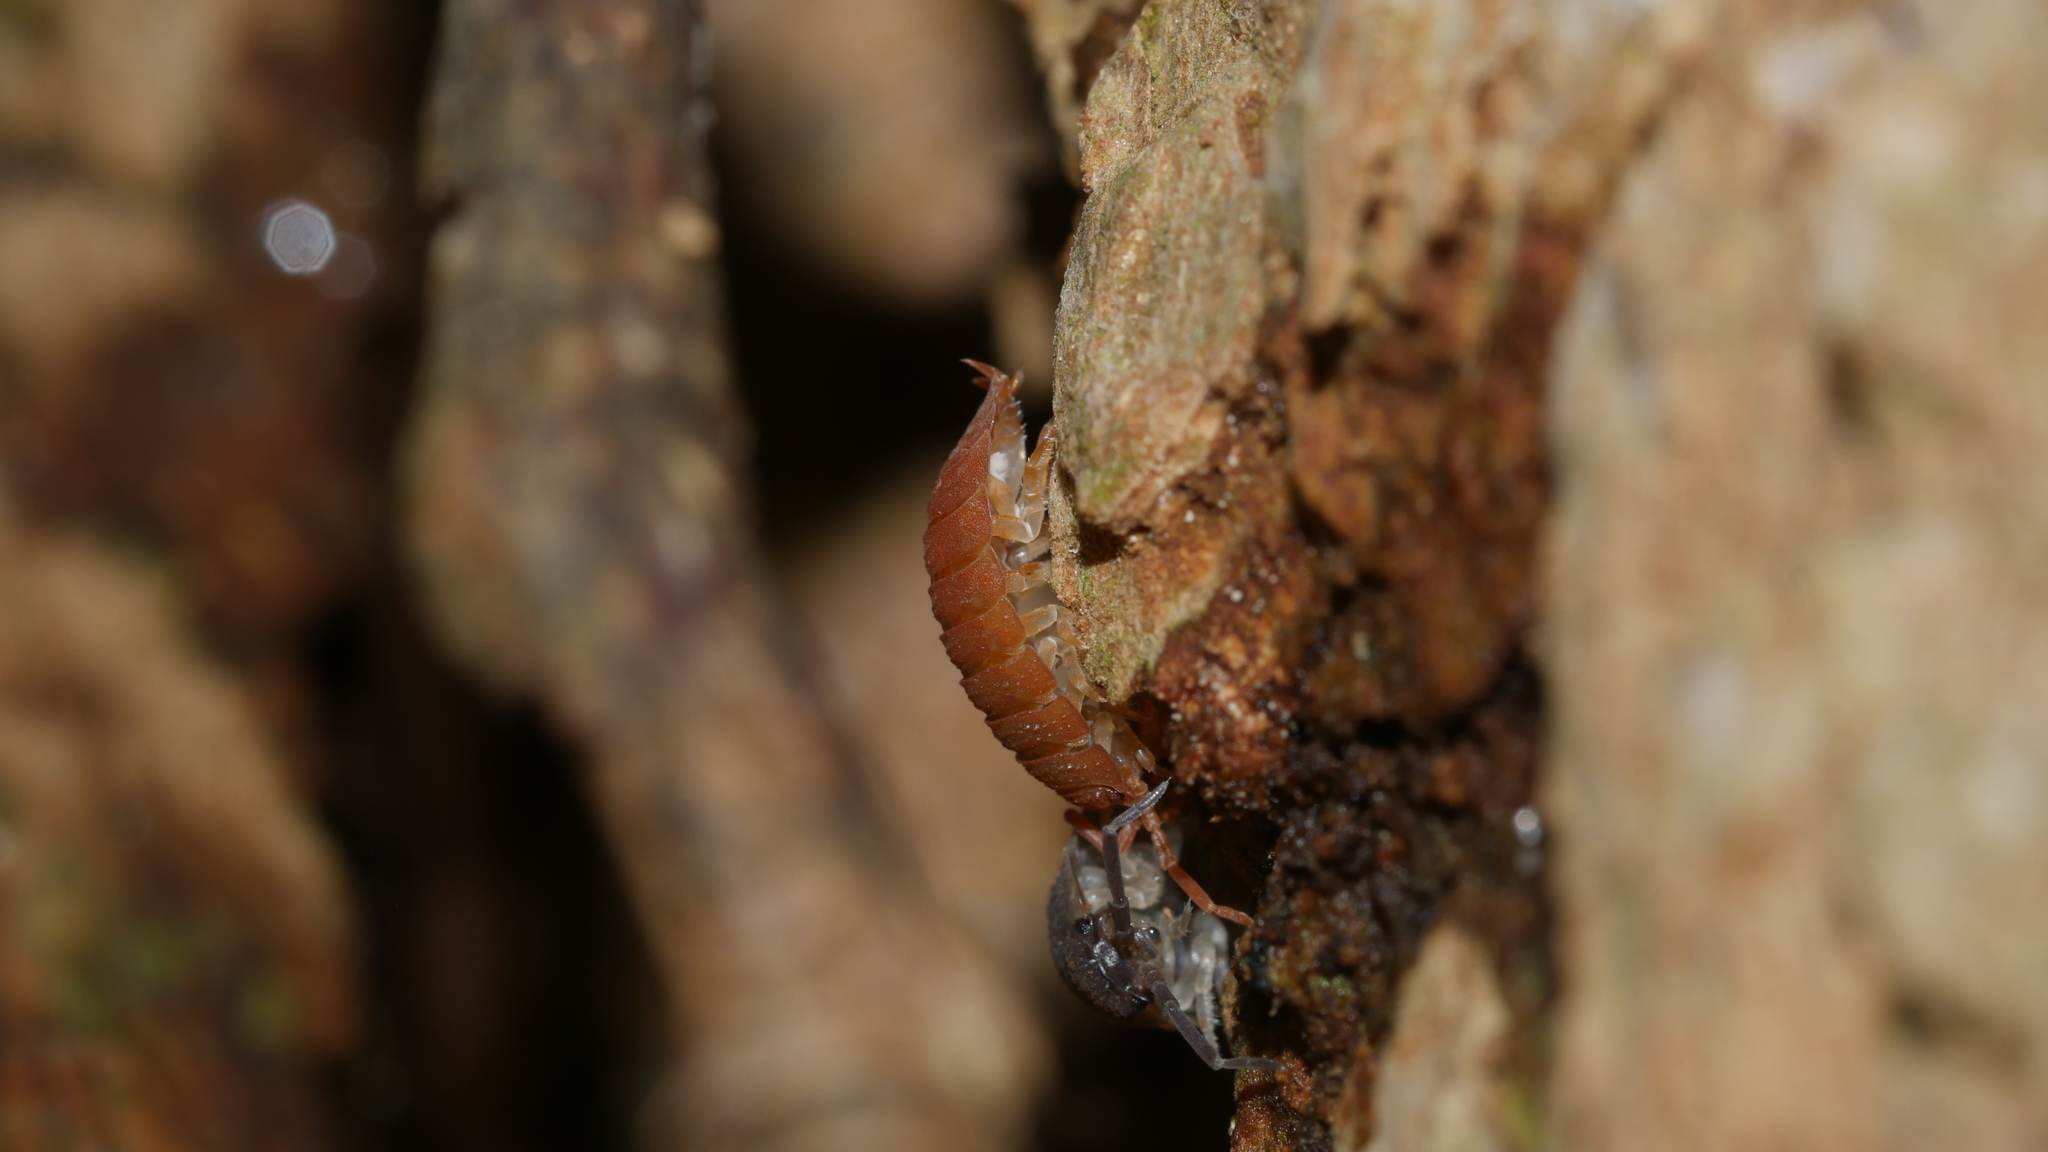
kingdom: Animalia
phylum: Arthropoda
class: Malacostraca
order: Isopoda
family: Porcellionidae
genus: Porcellio
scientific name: Porcellio scaber
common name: Common rough woodlouse
